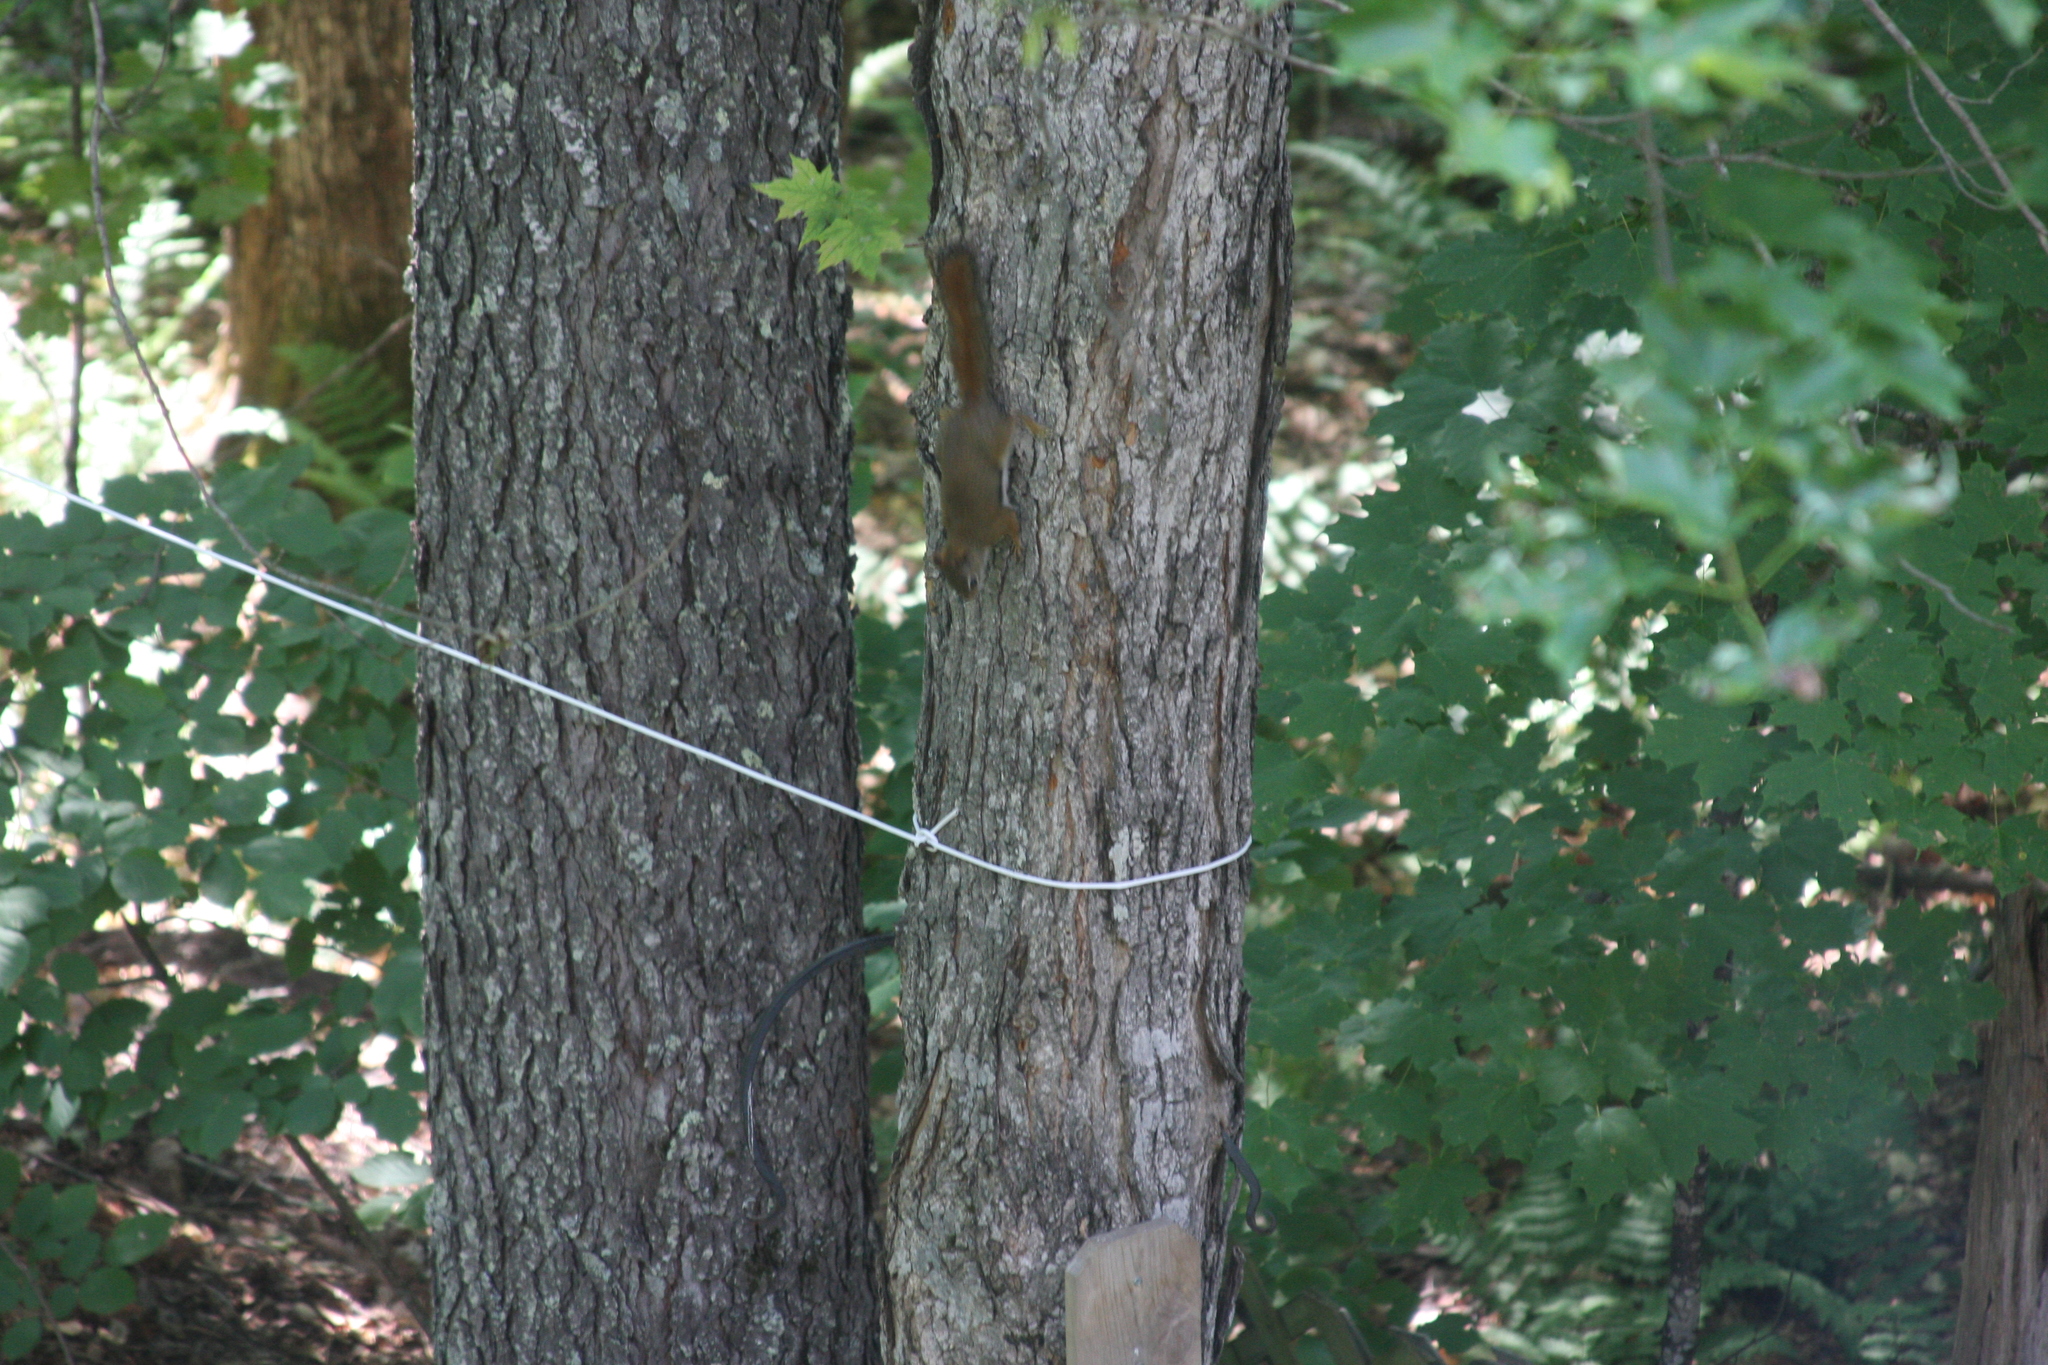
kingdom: Animalia
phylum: Chordata
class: Mammalia
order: Rodentia
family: Sciuridae
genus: Tamiasciurus
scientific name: Tamiasciurus hudsonicus
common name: Red squirrel
